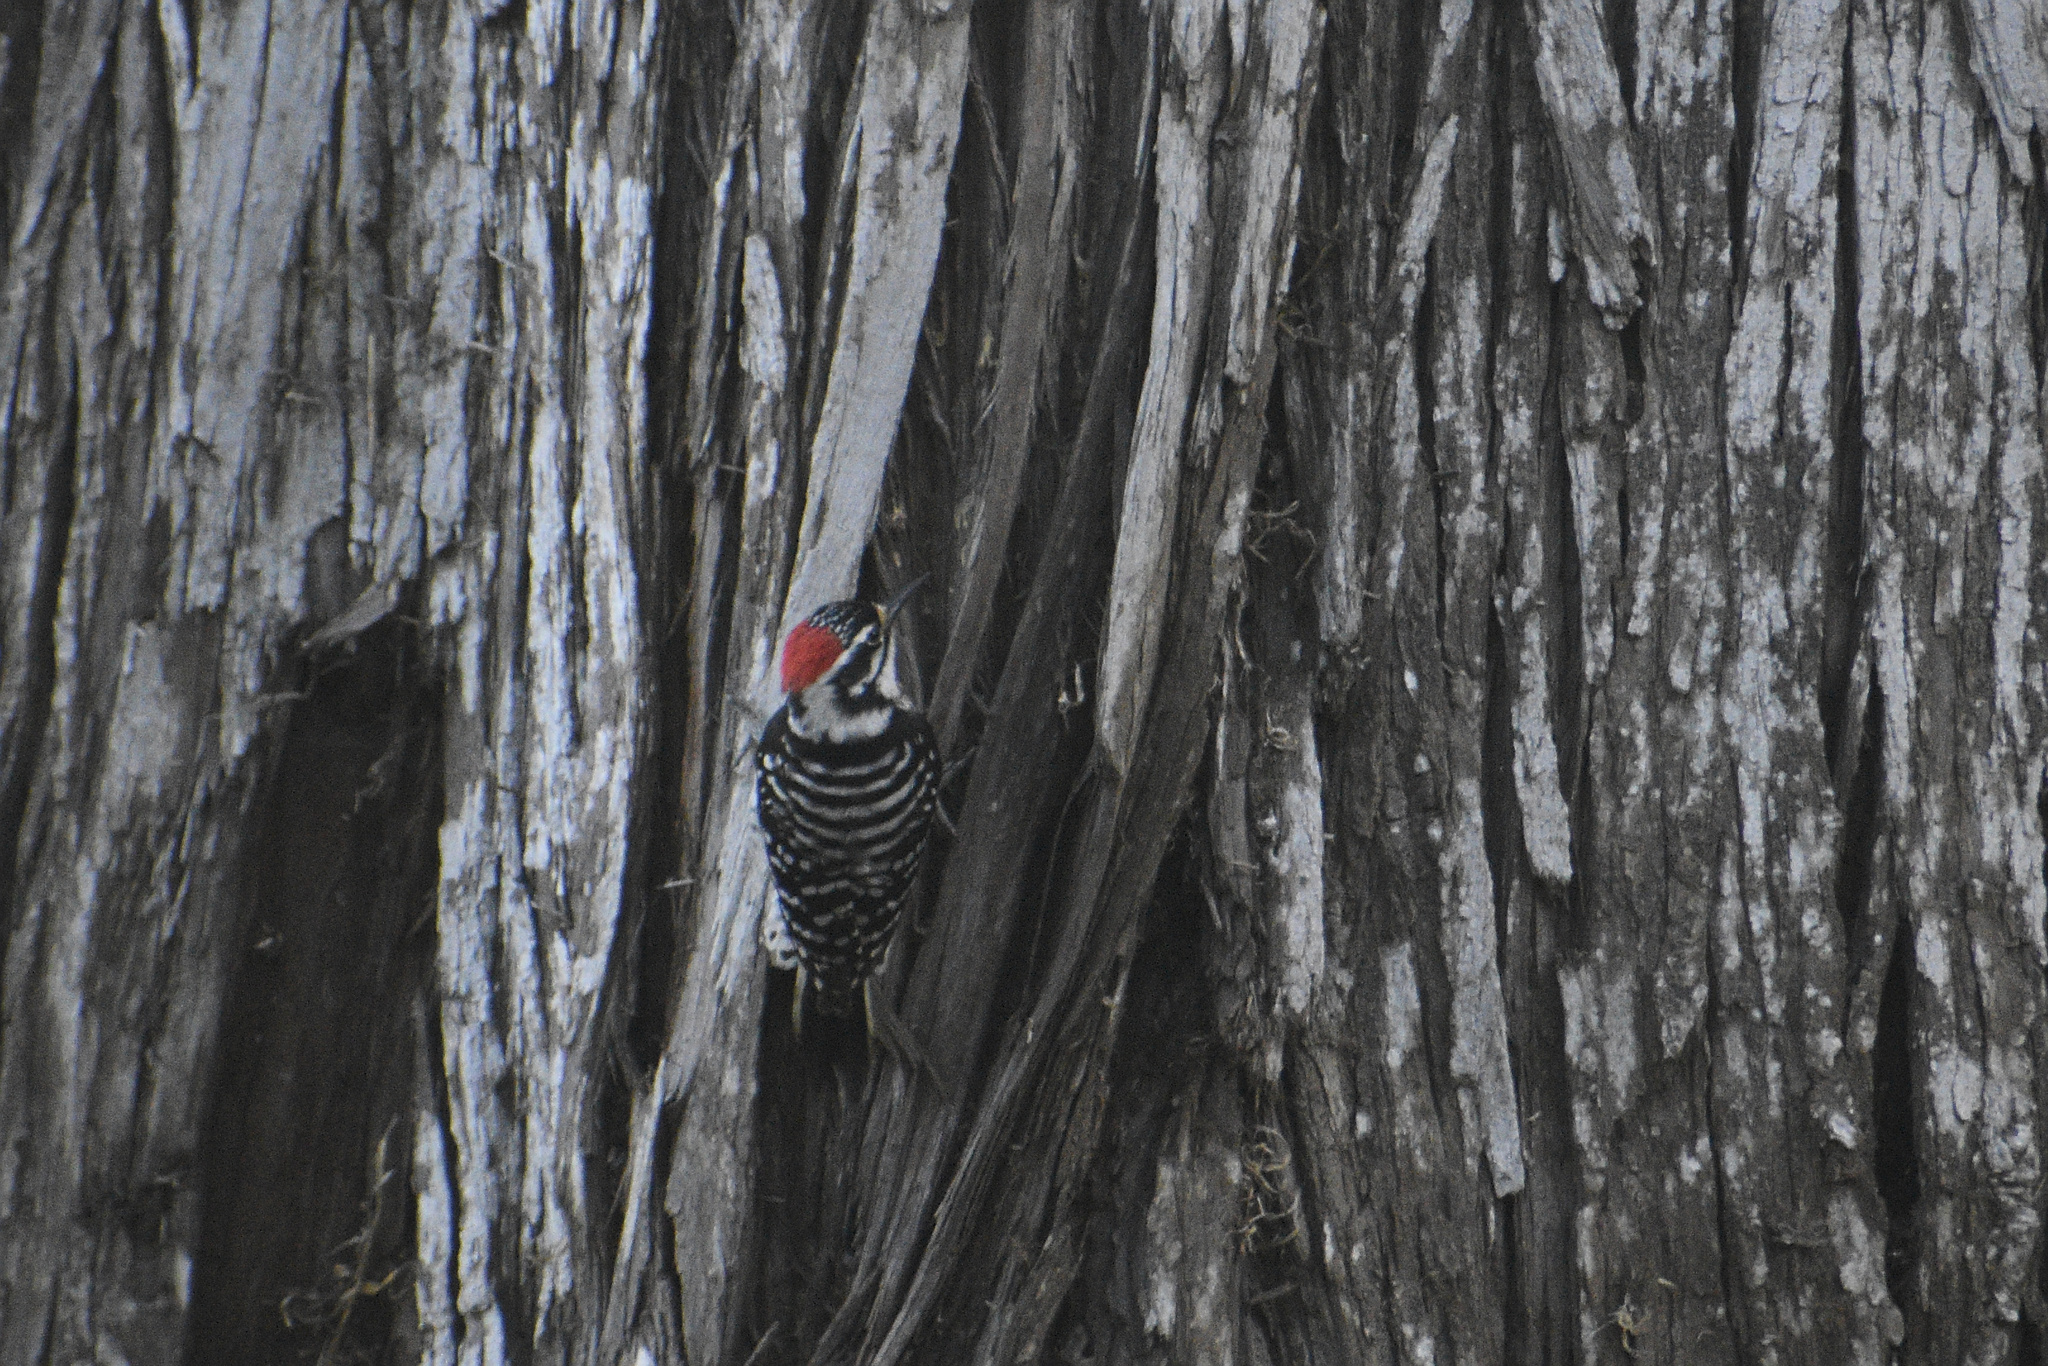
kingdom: Animalia
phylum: Chordata
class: Aves
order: Piciformes
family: Picidae
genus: Dryobates
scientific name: Dryobates nuttallii
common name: Nuttall's woodpecker
